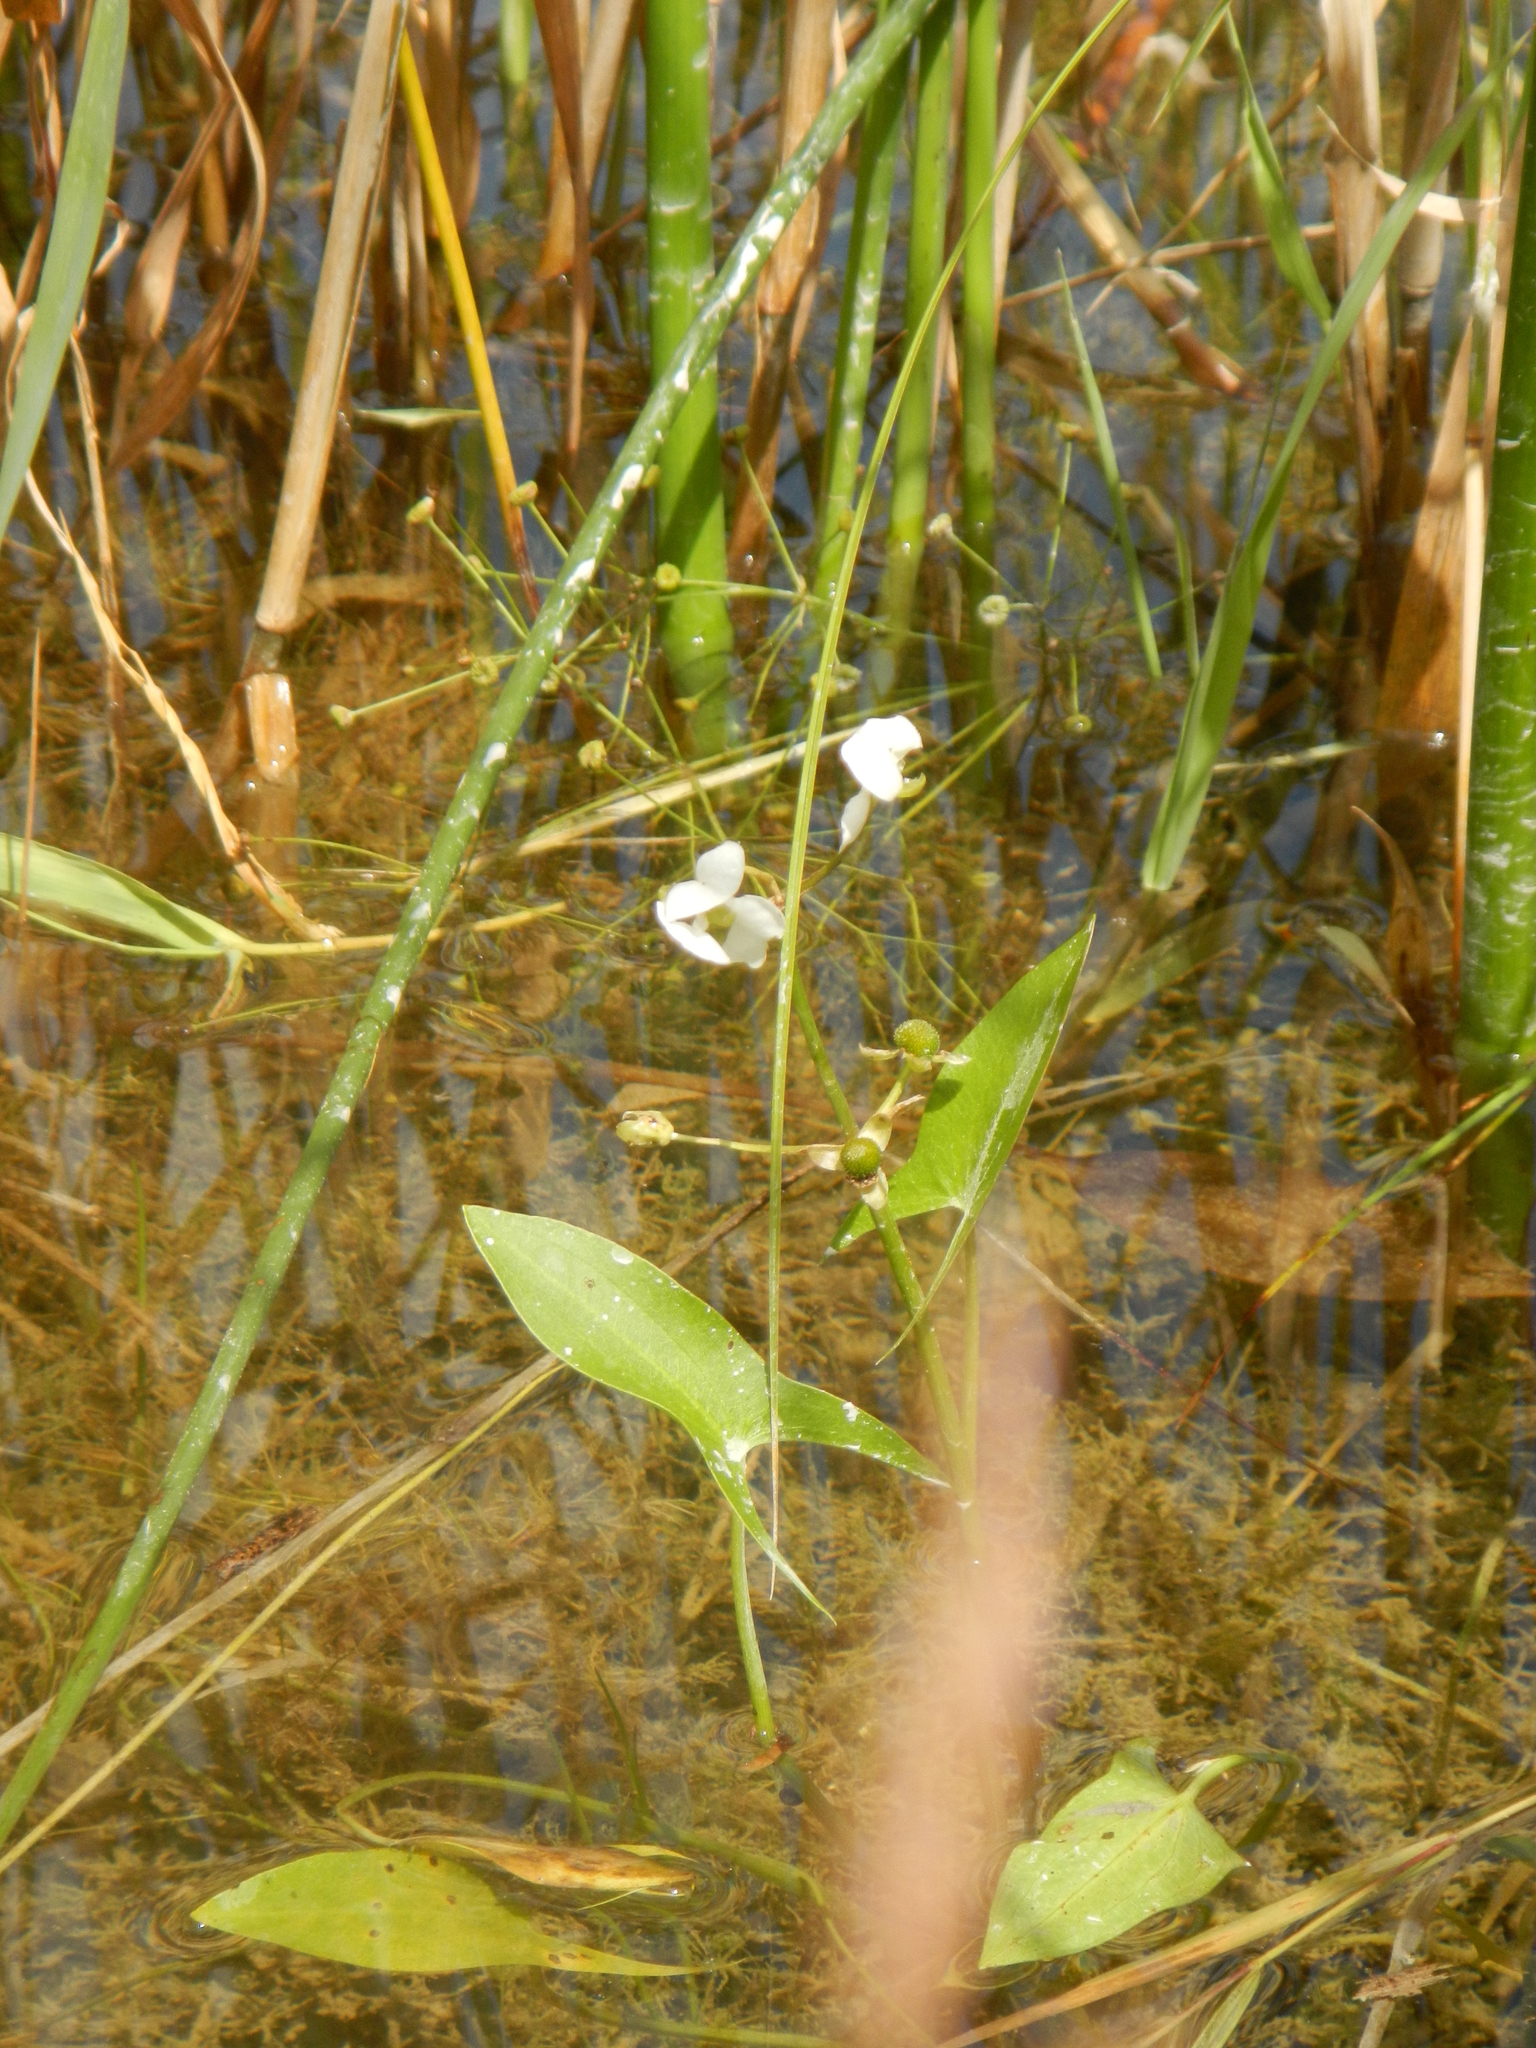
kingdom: Plantae
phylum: Tracheophyta
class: Liliopsida
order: Alismatales
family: Alismataceae
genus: Sagittaria
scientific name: Sagittaria cuneata
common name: Northern arrowhead
